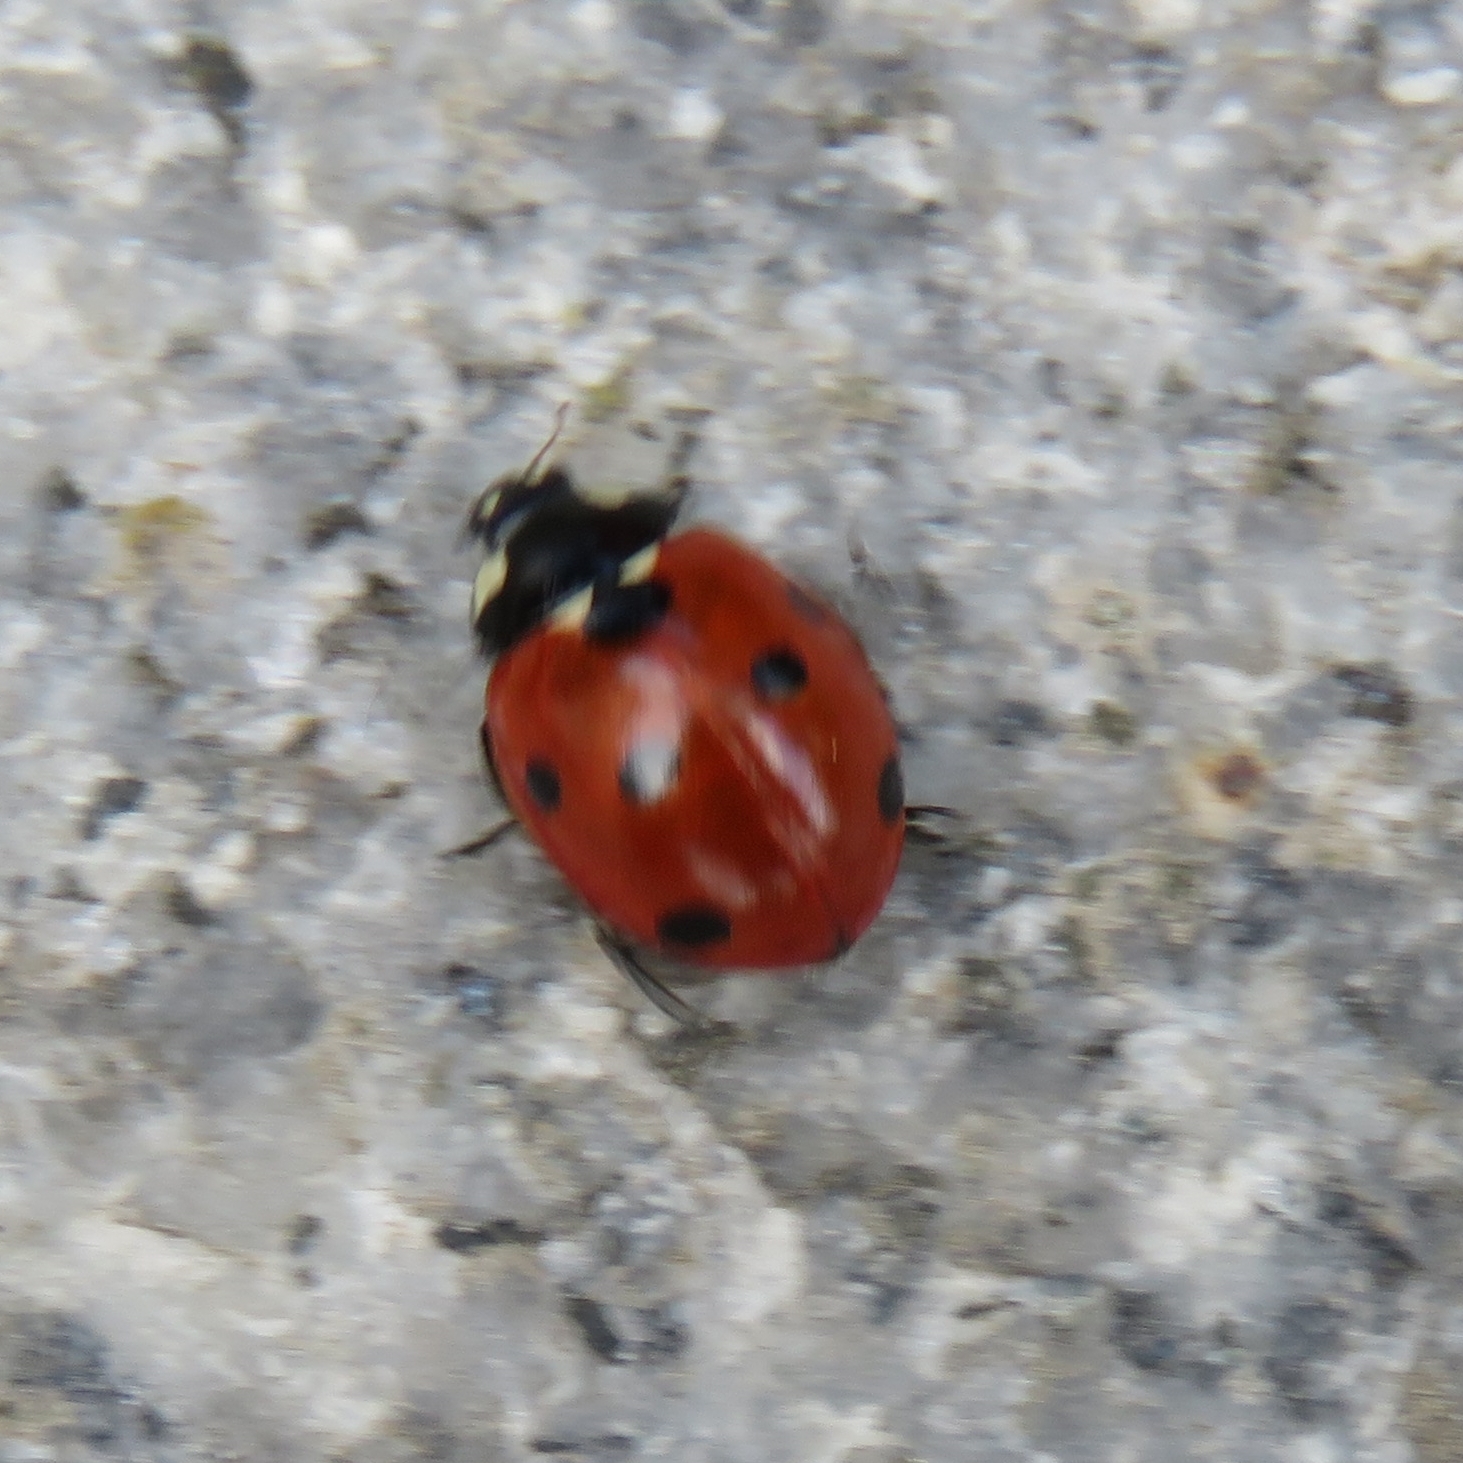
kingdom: Animalia
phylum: Arthropoda
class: Insecta
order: Coleoptera
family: Coccinellidae
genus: Coccinella
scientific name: Coccinella septempunctata
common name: Sevenspotted lady beetle
